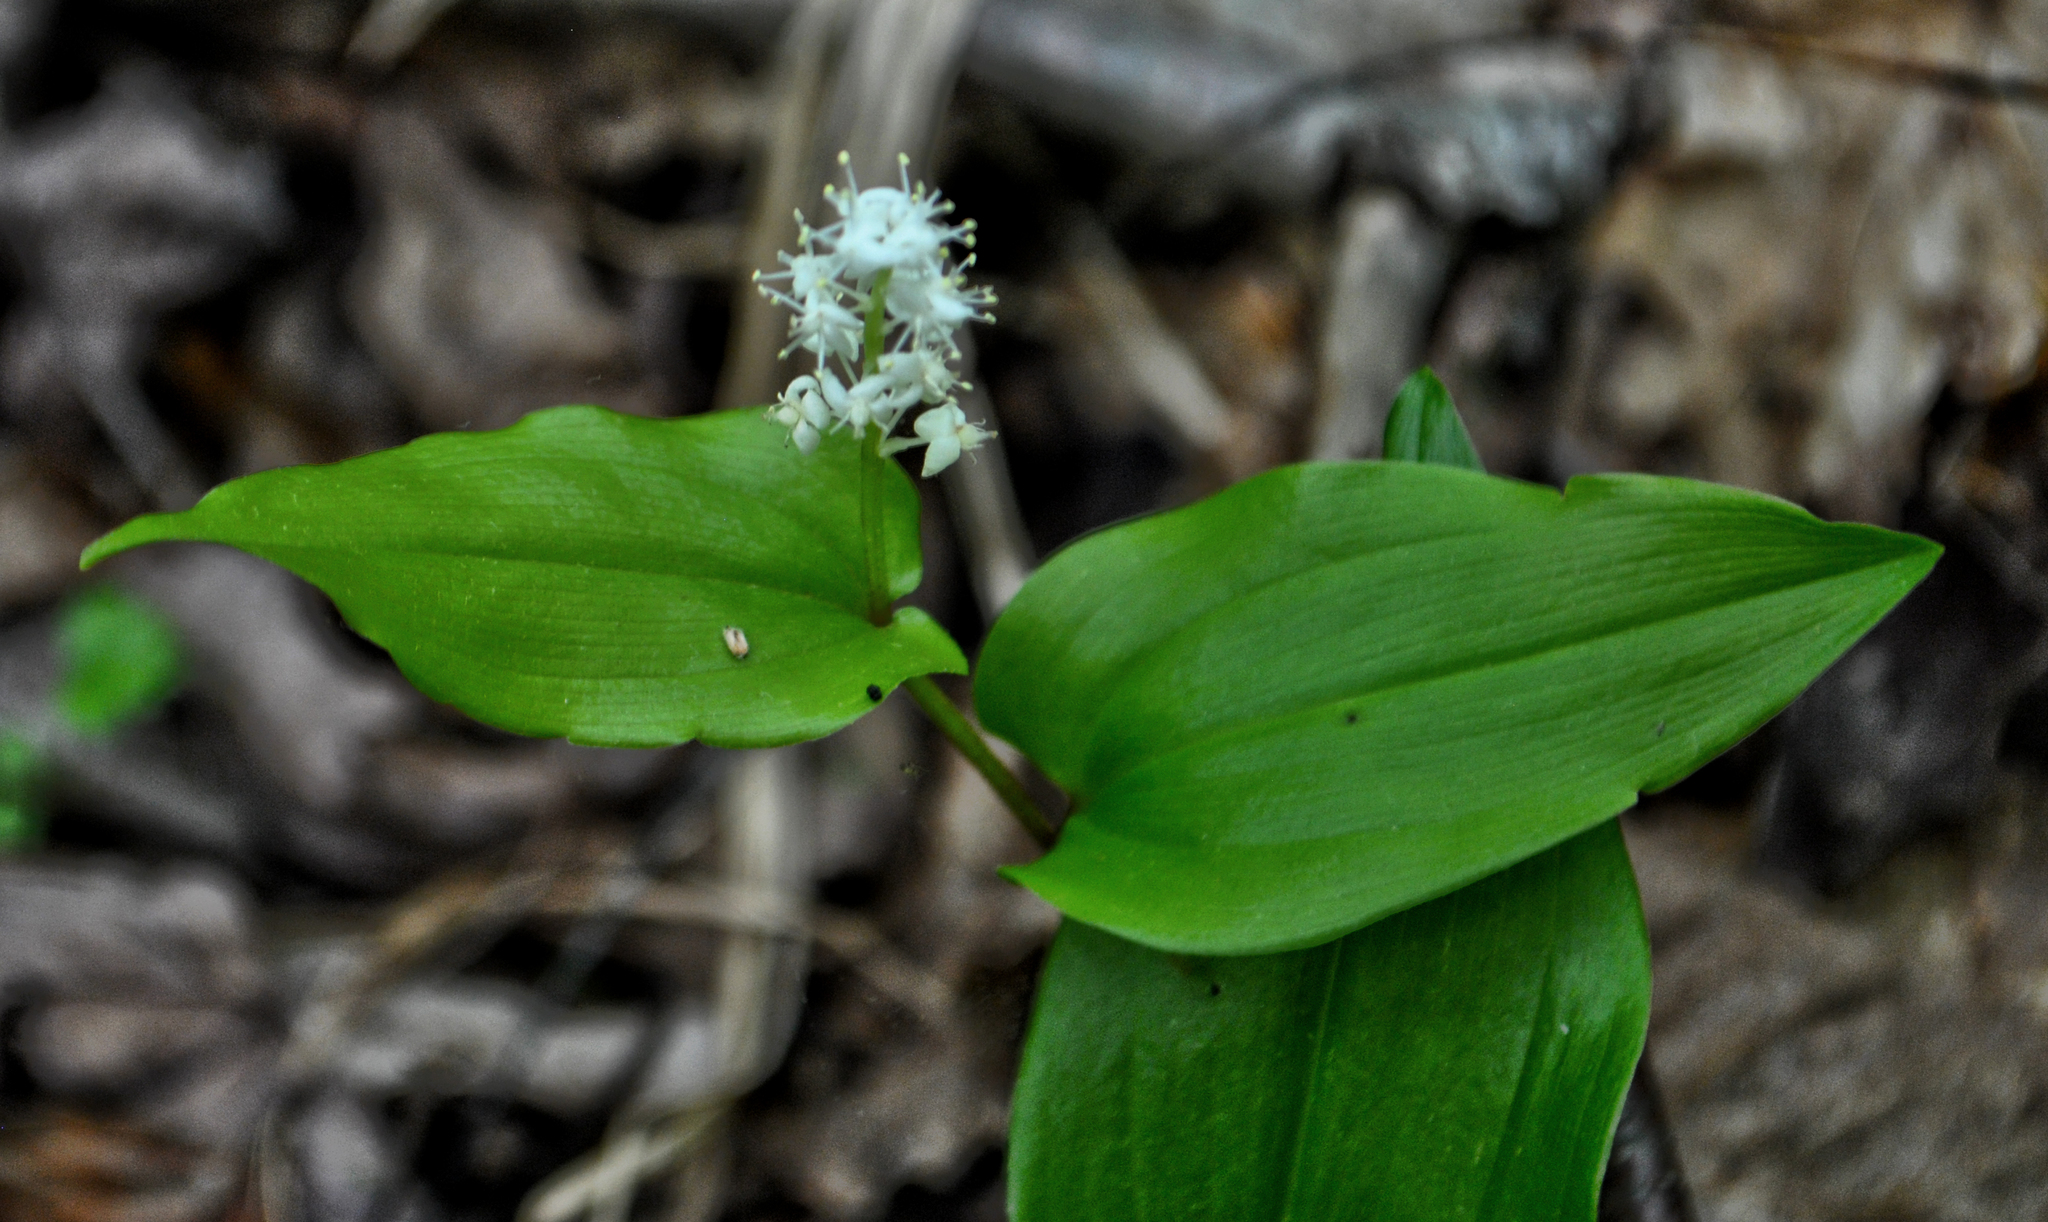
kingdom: Plantae
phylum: Tracheophyta
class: Liliopsida
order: Asparagales
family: Asparagaceae
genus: Maianthemum
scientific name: Maianthemum canadense
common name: False lily-of-the-valley
